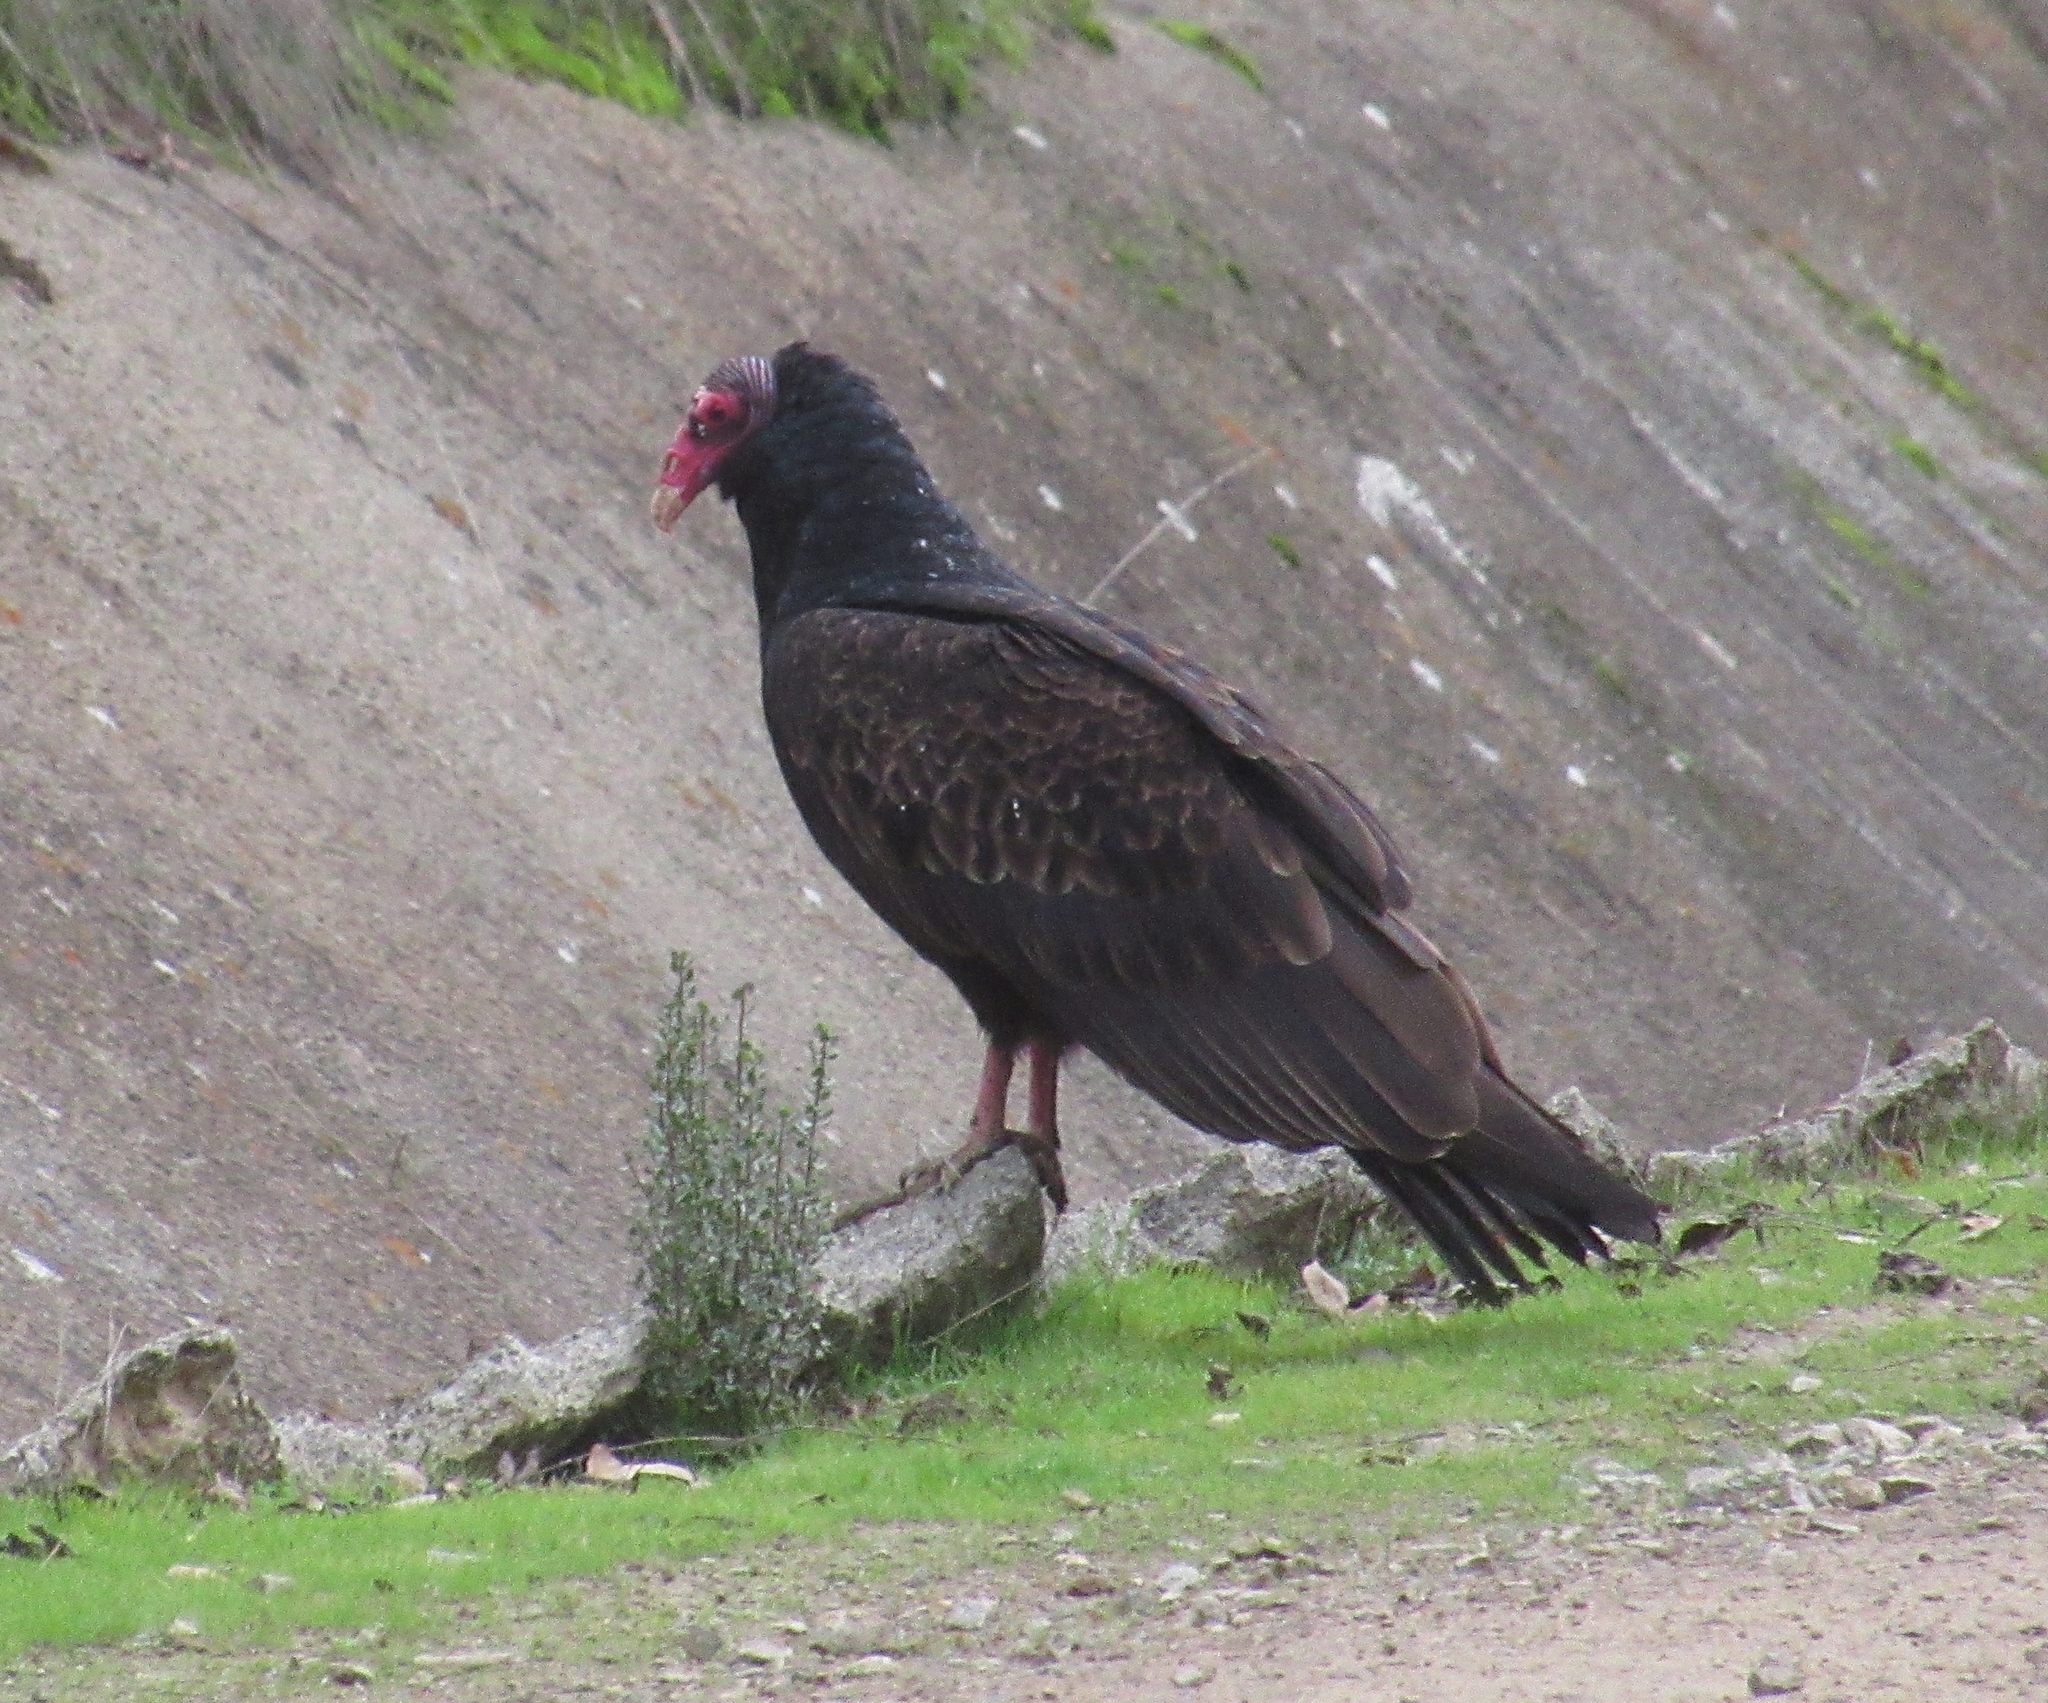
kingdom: Animalia
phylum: Chordata
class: Aves
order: Accipitriformes
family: Cathartidae
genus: Cathartes
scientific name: Cathartes aura
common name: Turkey vulture
